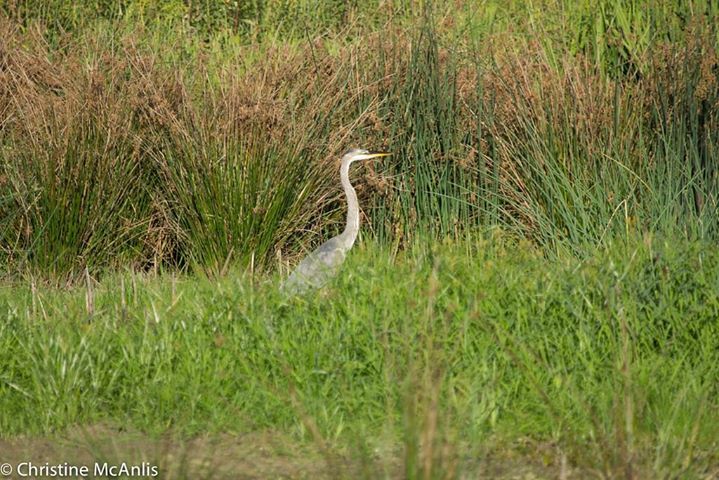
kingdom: Animalia
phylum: Chordata
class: Aves
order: Pelecaniformes
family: Ardeidae
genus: Ardea
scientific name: Ardea herodias
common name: Great blue heron
